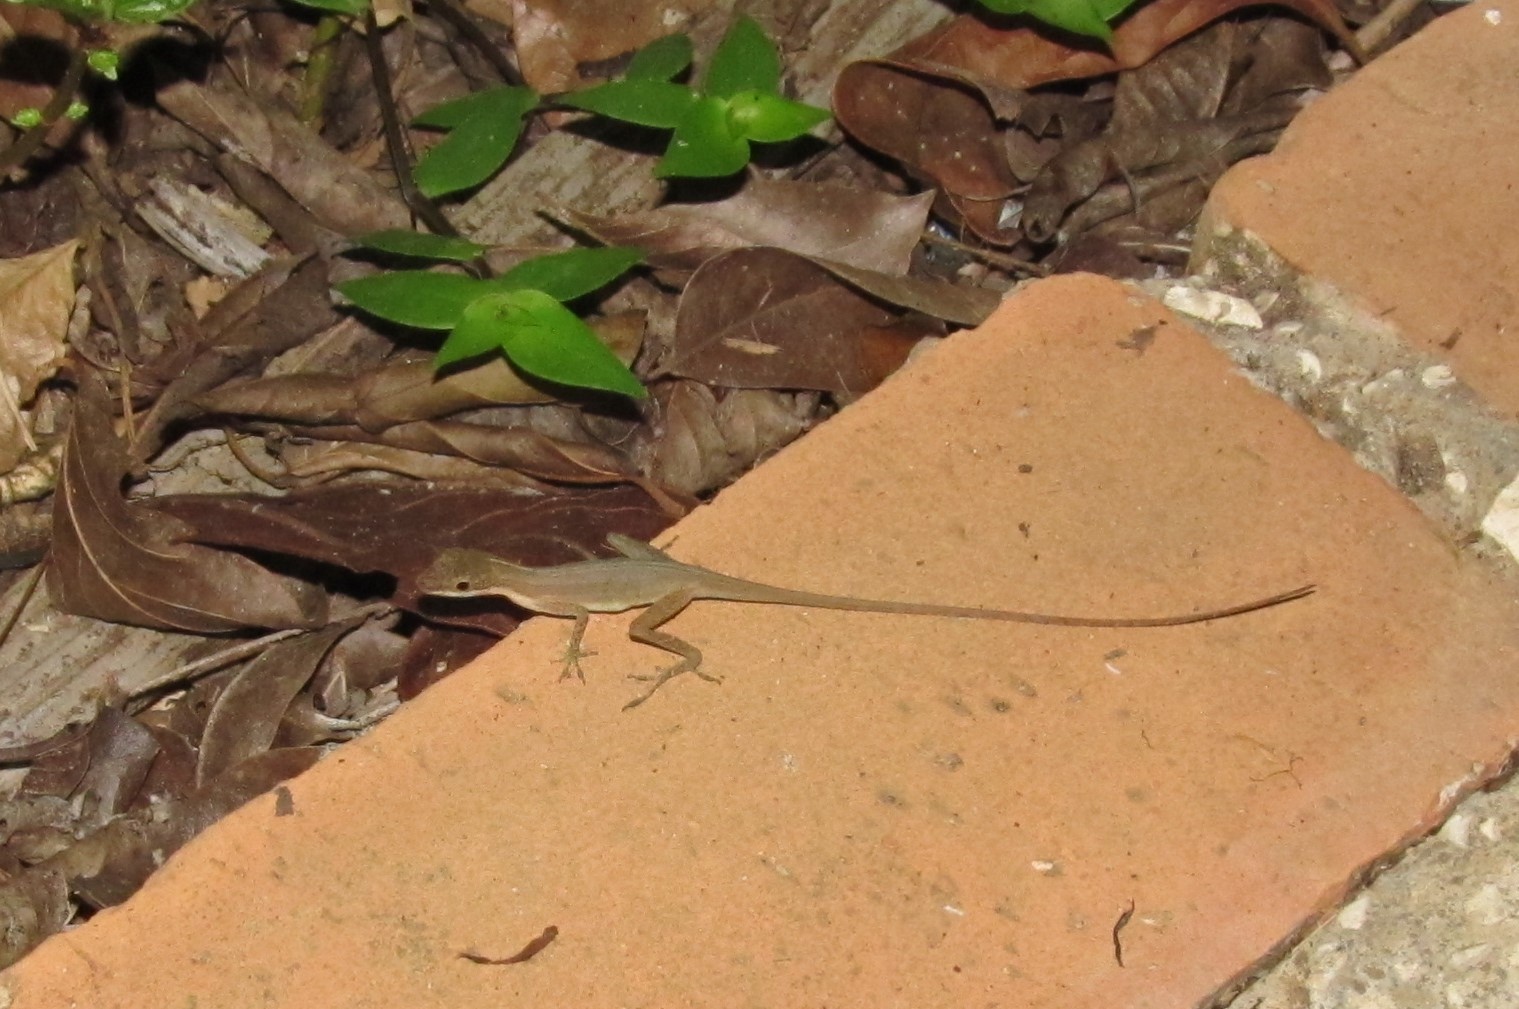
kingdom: Animalia
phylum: Chordata
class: Squamata
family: Dactyloidae
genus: Anolis
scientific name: Anolis limifrons
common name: Border anole
